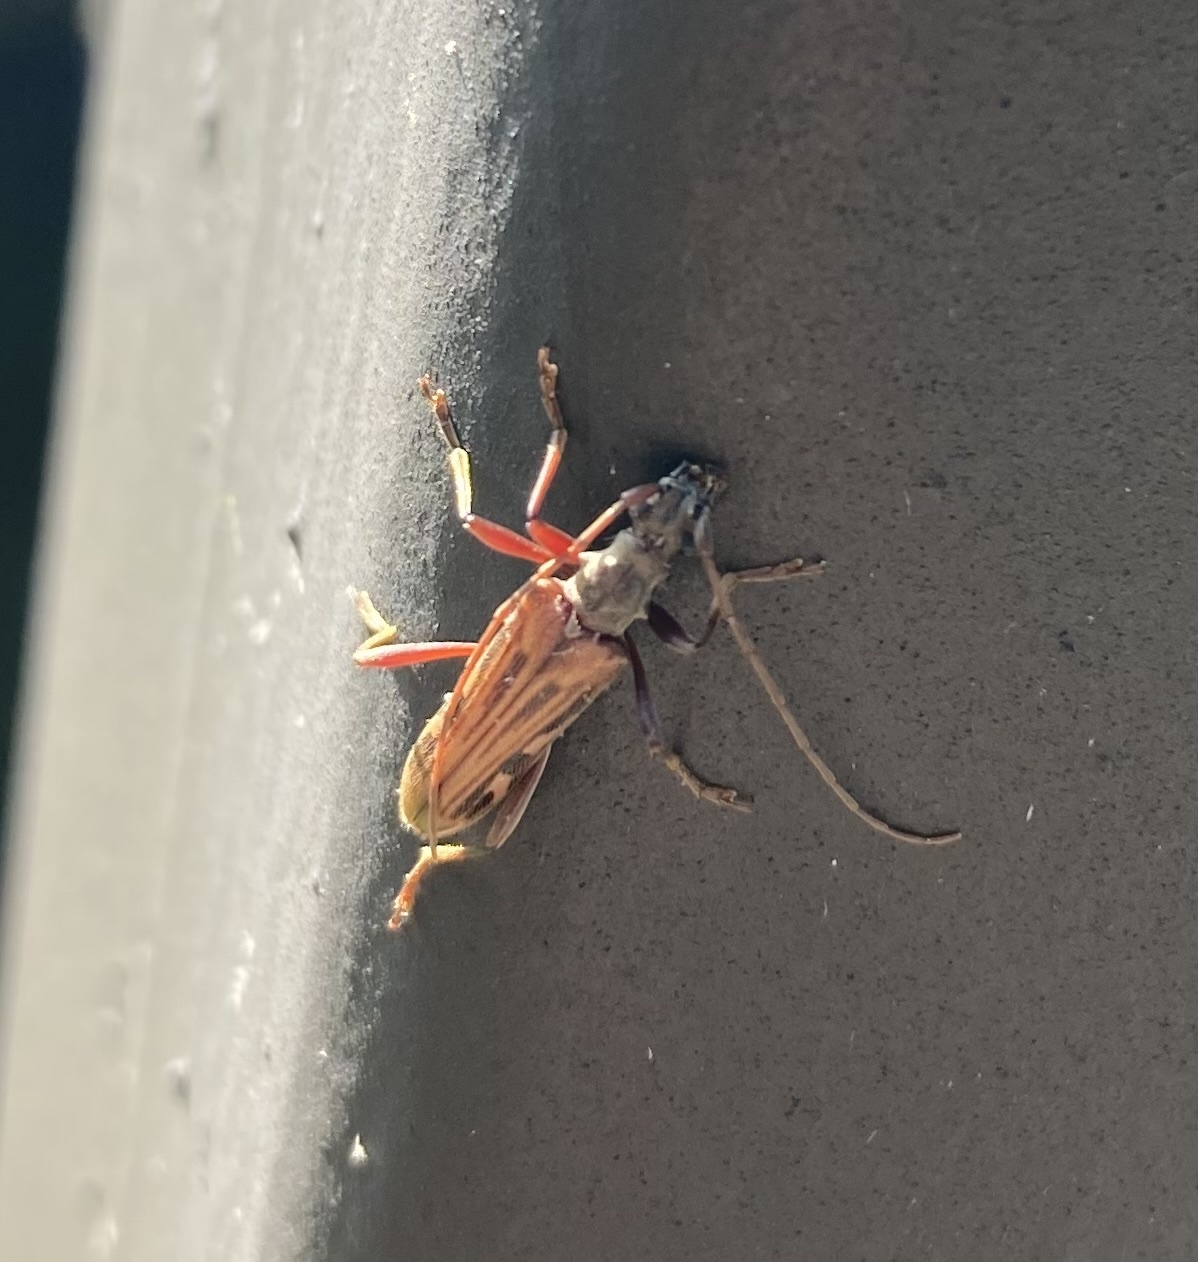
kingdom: Animalia
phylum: Arthropoda
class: Insecta
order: Coleoptera
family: Cerambycidae
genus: Leptorhabdium
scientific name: Leptorhabdium pictum
